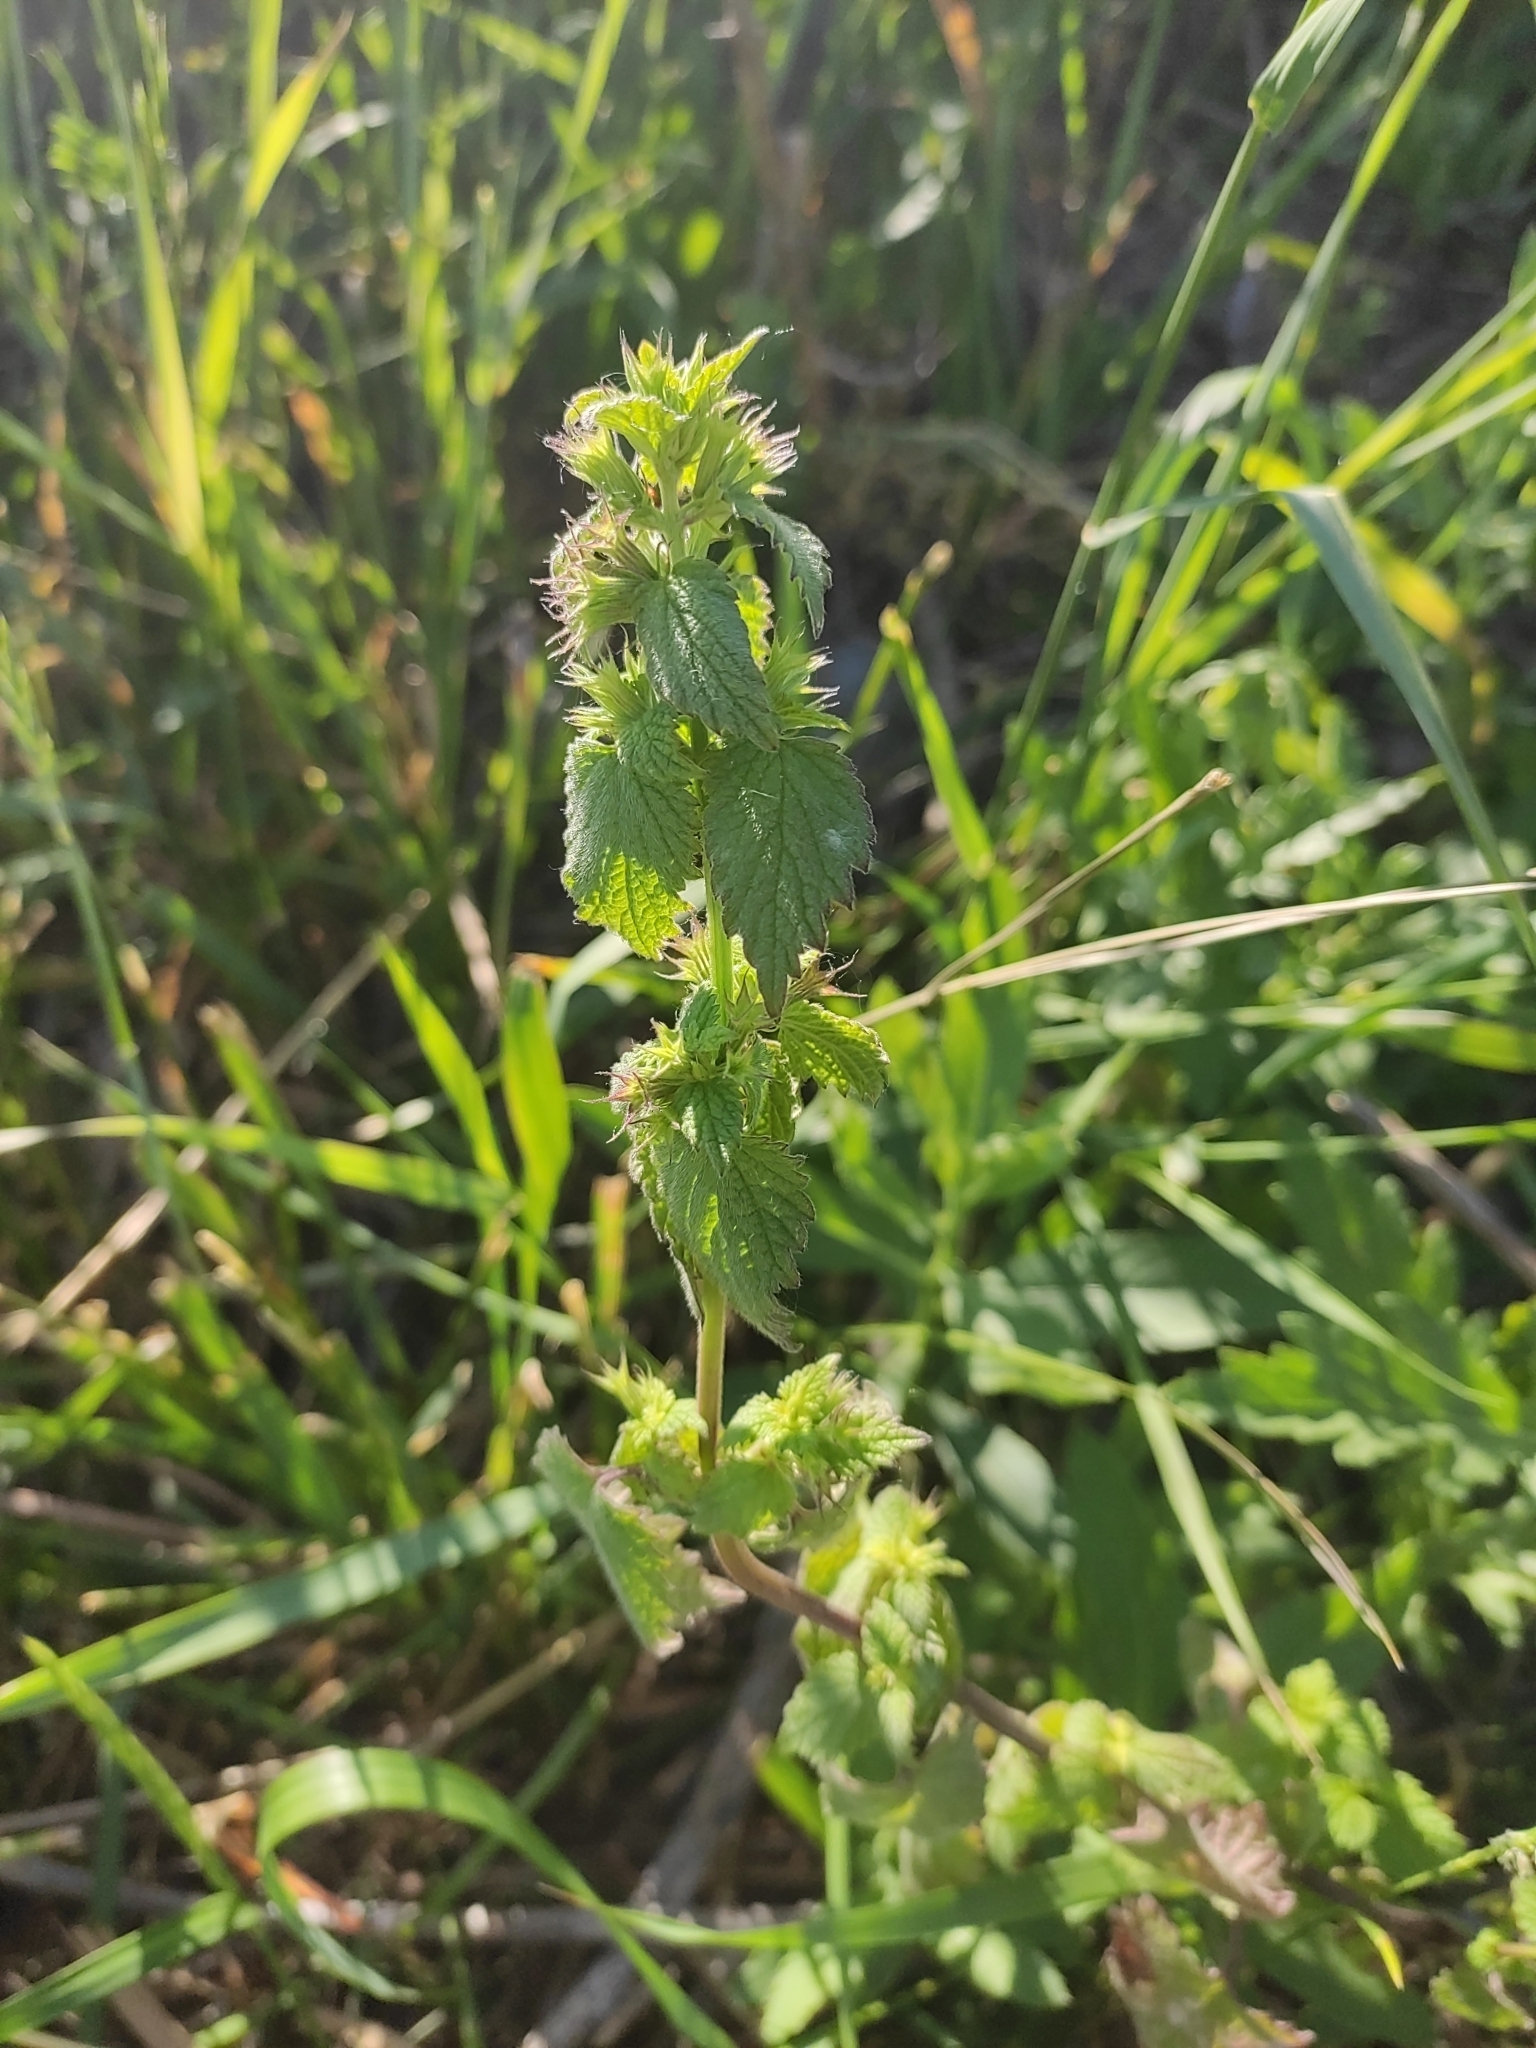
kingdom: Plantae
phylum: Tracheophyta
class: Magnoliopsida
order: Lamiales
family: Lamiaceae
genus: Ballota
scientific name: Ballota nigra
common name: Black horehound
